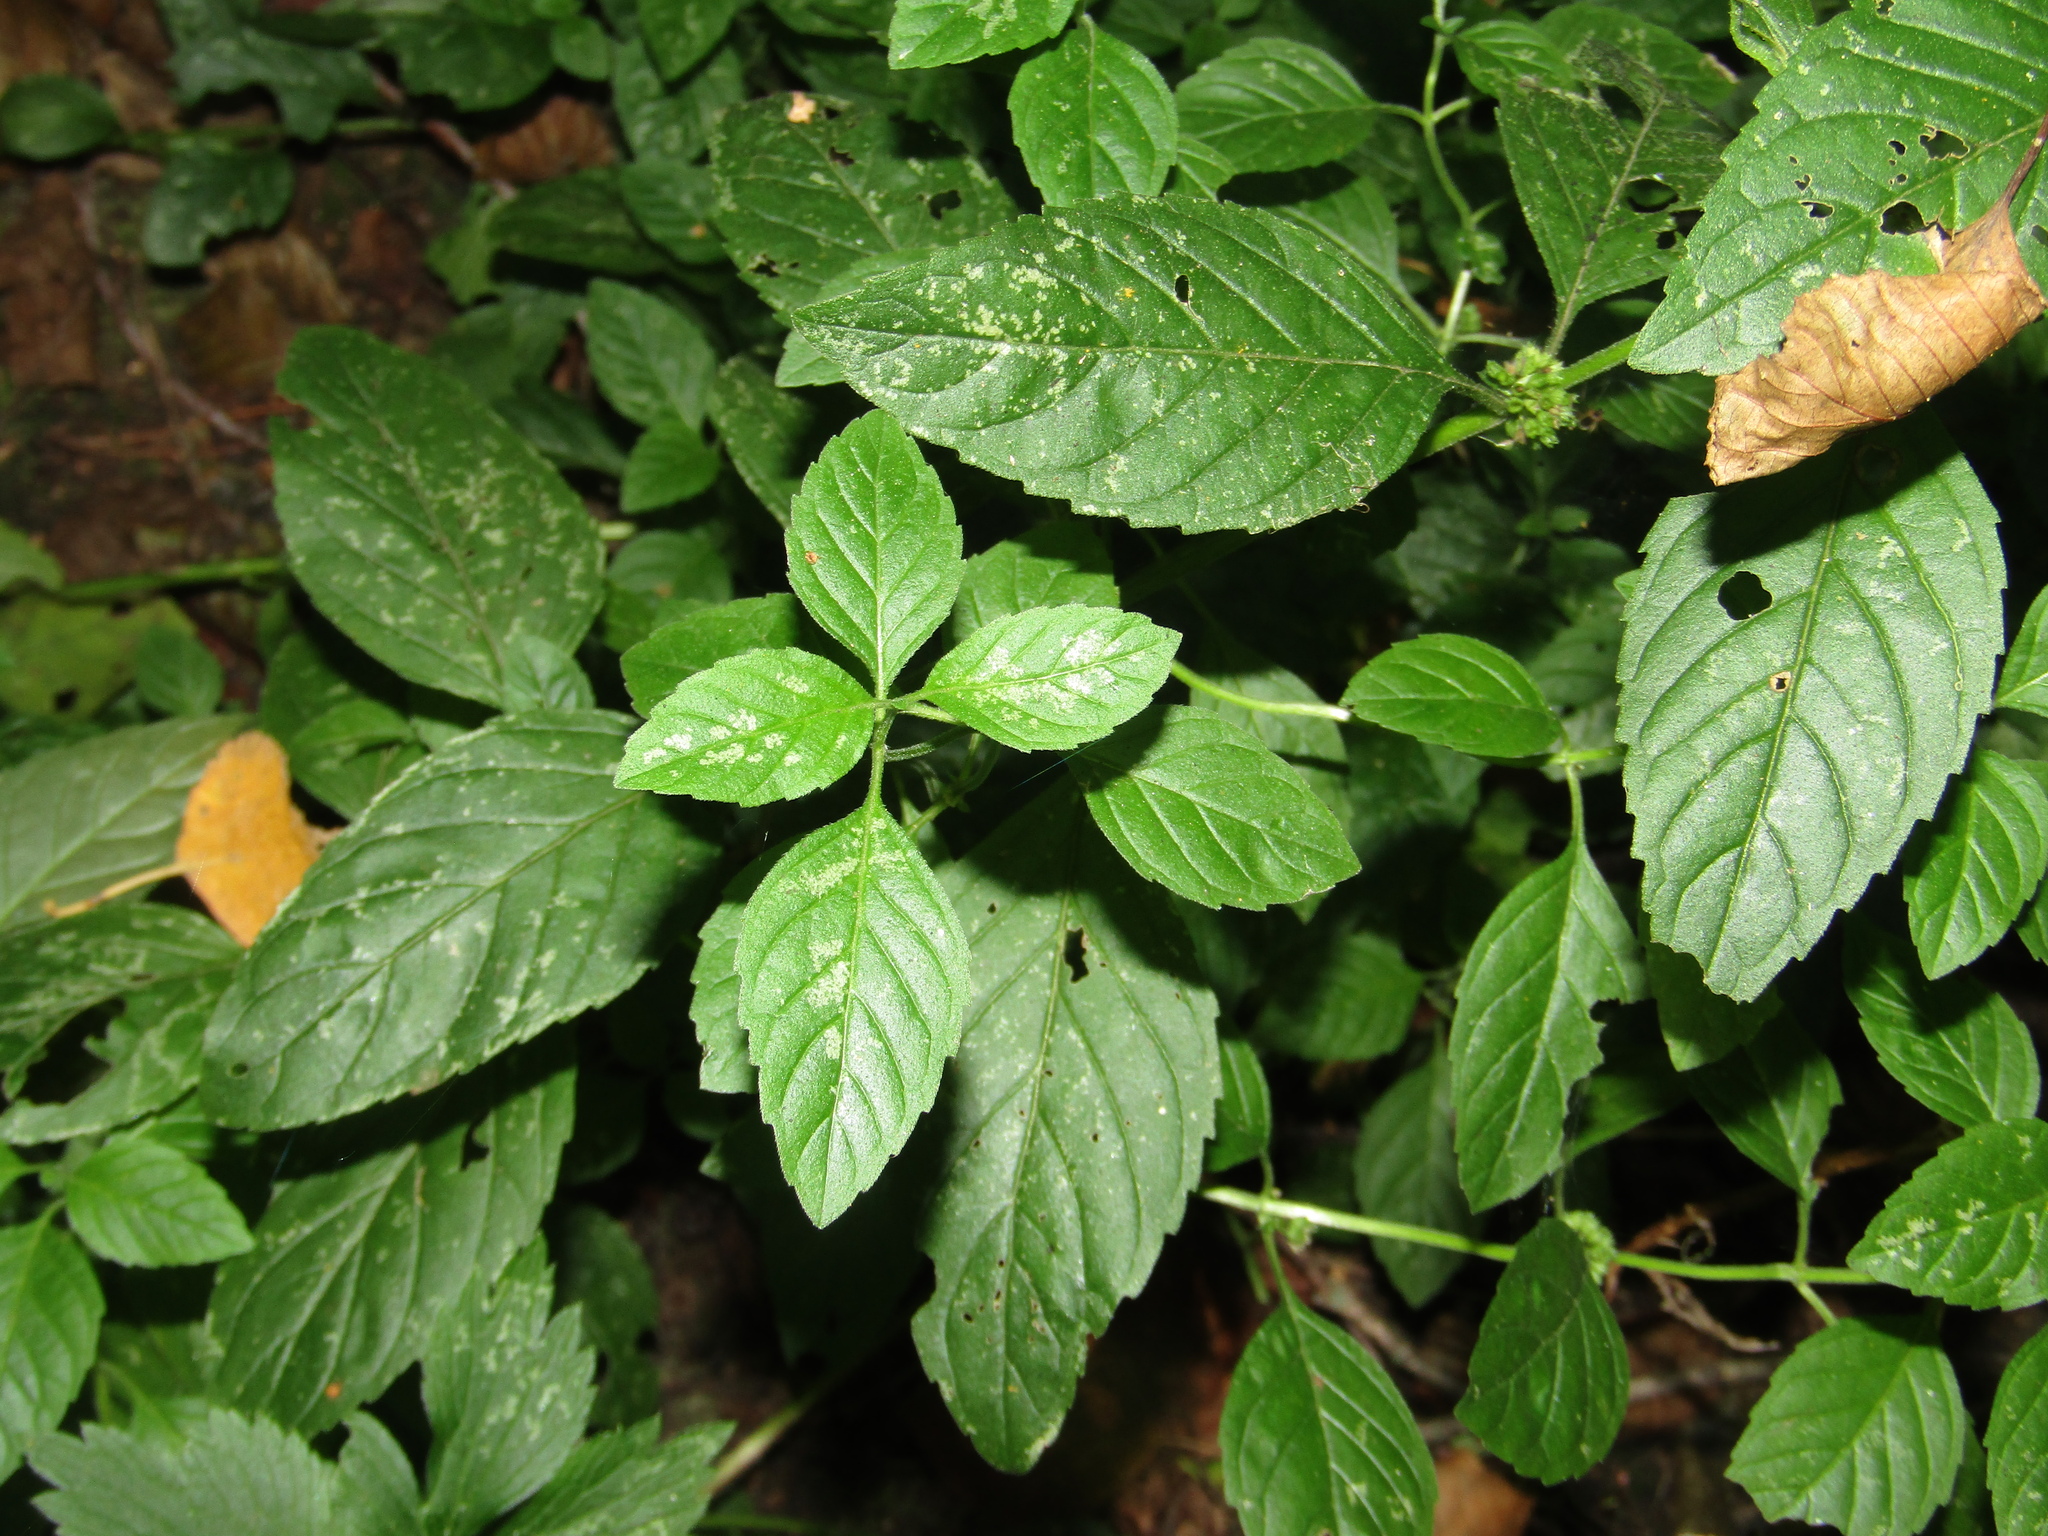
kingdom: Plantae
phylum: Tracheophyta
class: Magnoliopsida
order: Lamiales
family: Lamiaceae
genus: Mentha
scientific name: Mentha arvensis
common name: Corn mint
